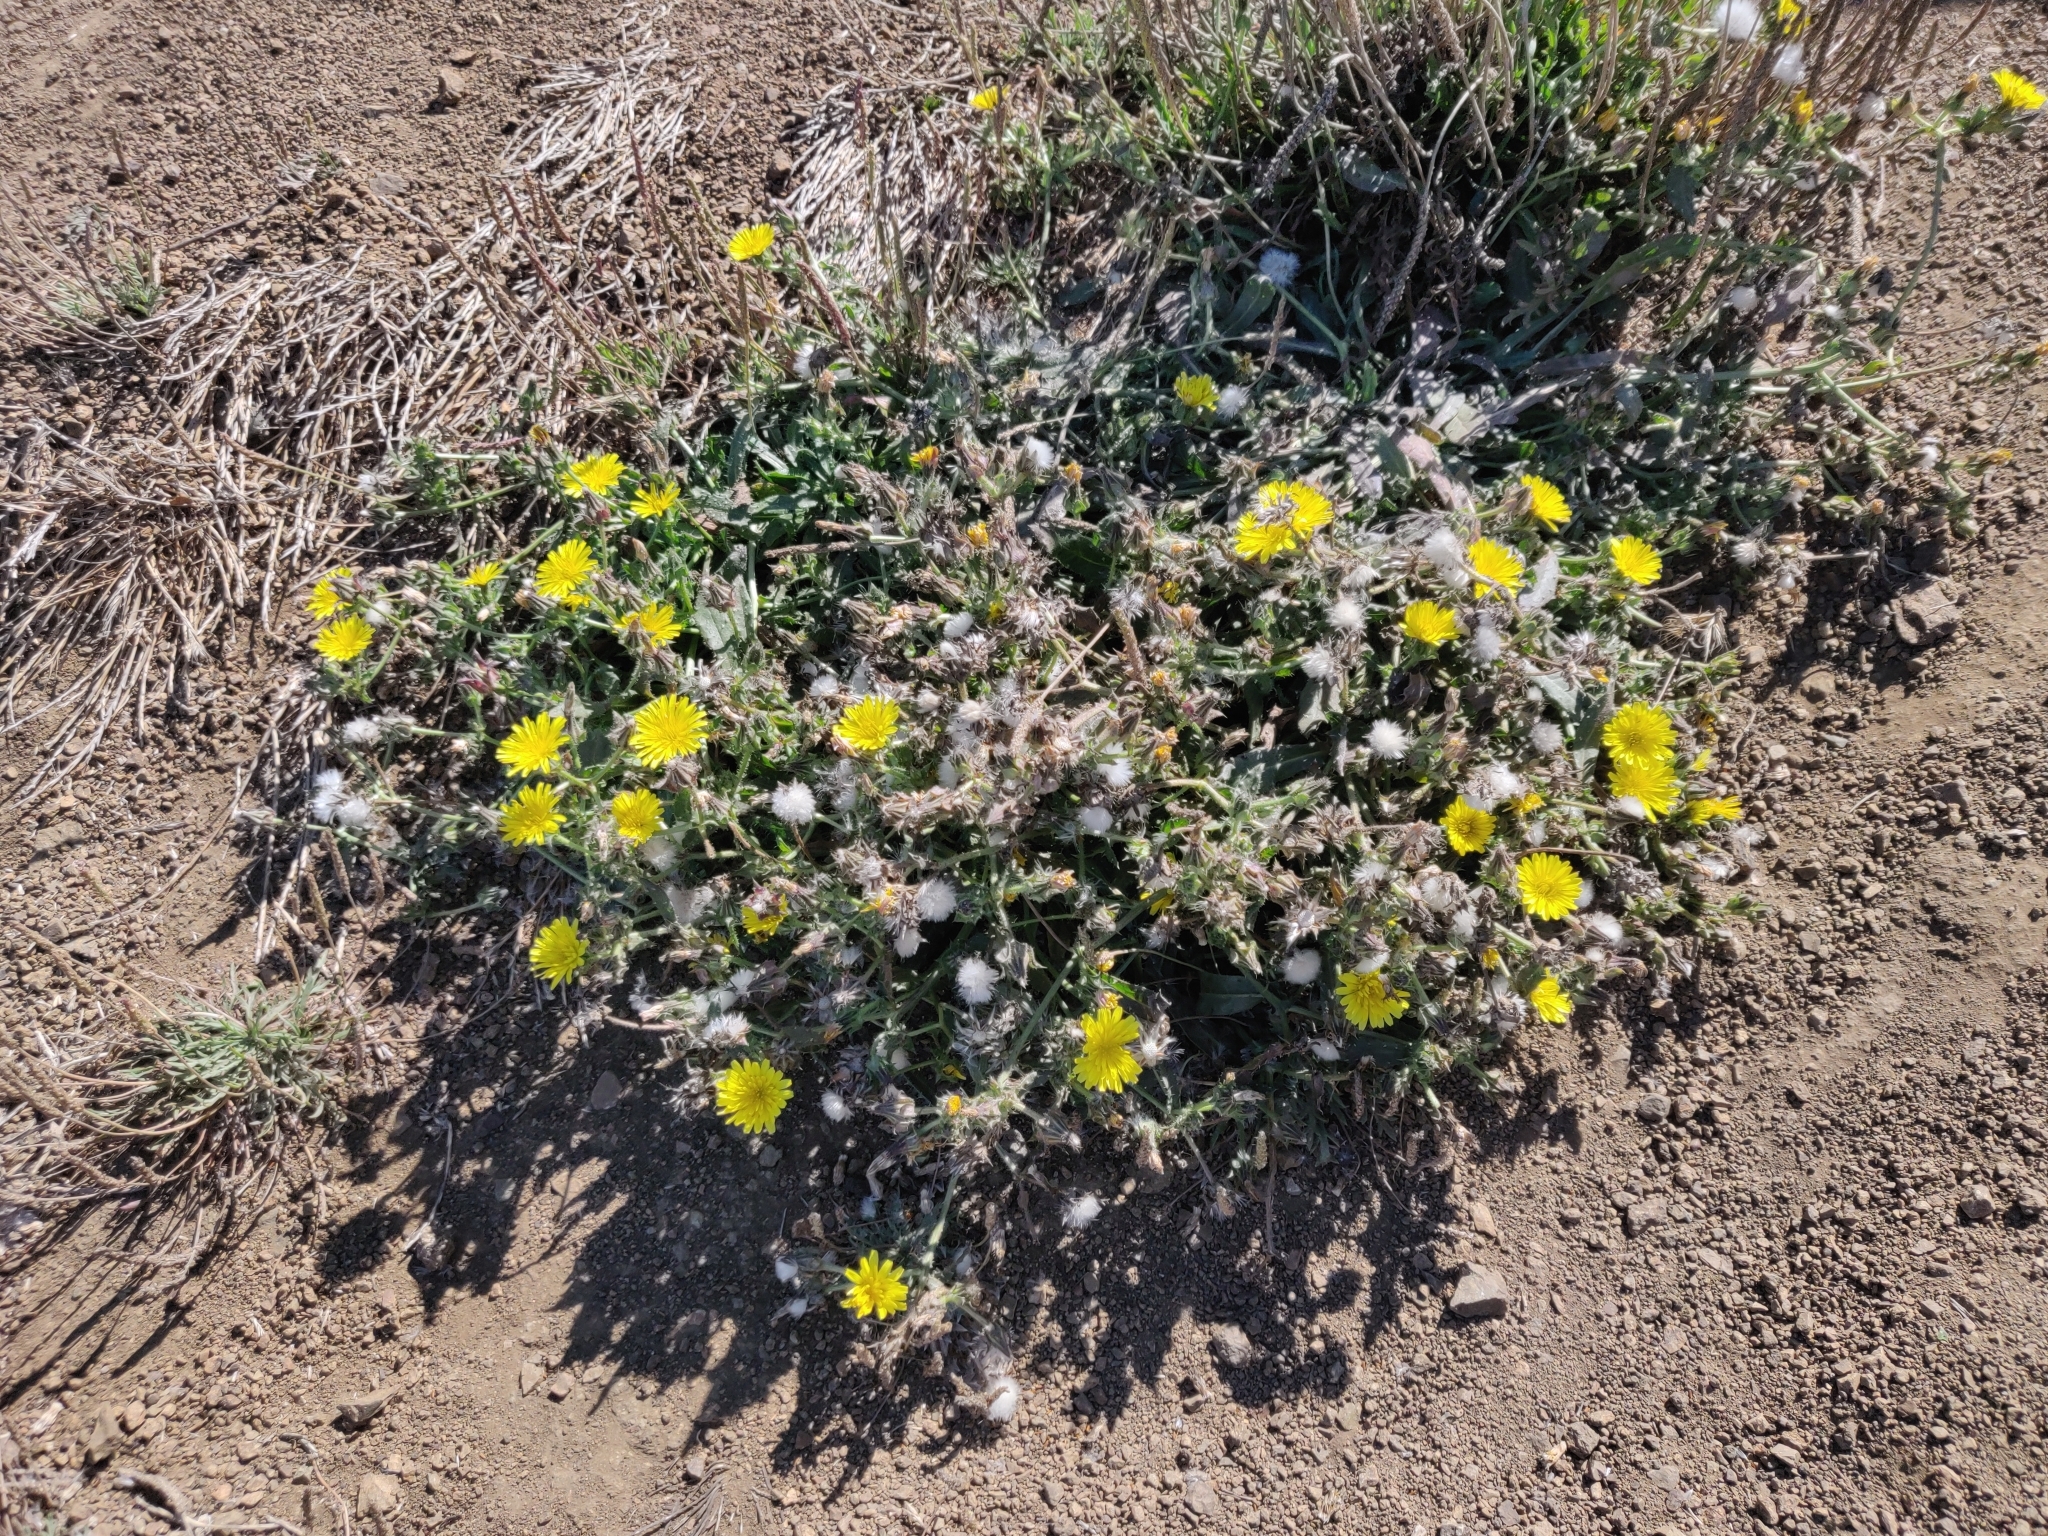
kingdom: Plantae
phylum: Tracheophyta
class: Magnoliopsida
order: Asterales
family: Asteraceae
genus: Helminthotheca
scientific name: Helminthotheca echioides
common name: Ox-tongue
